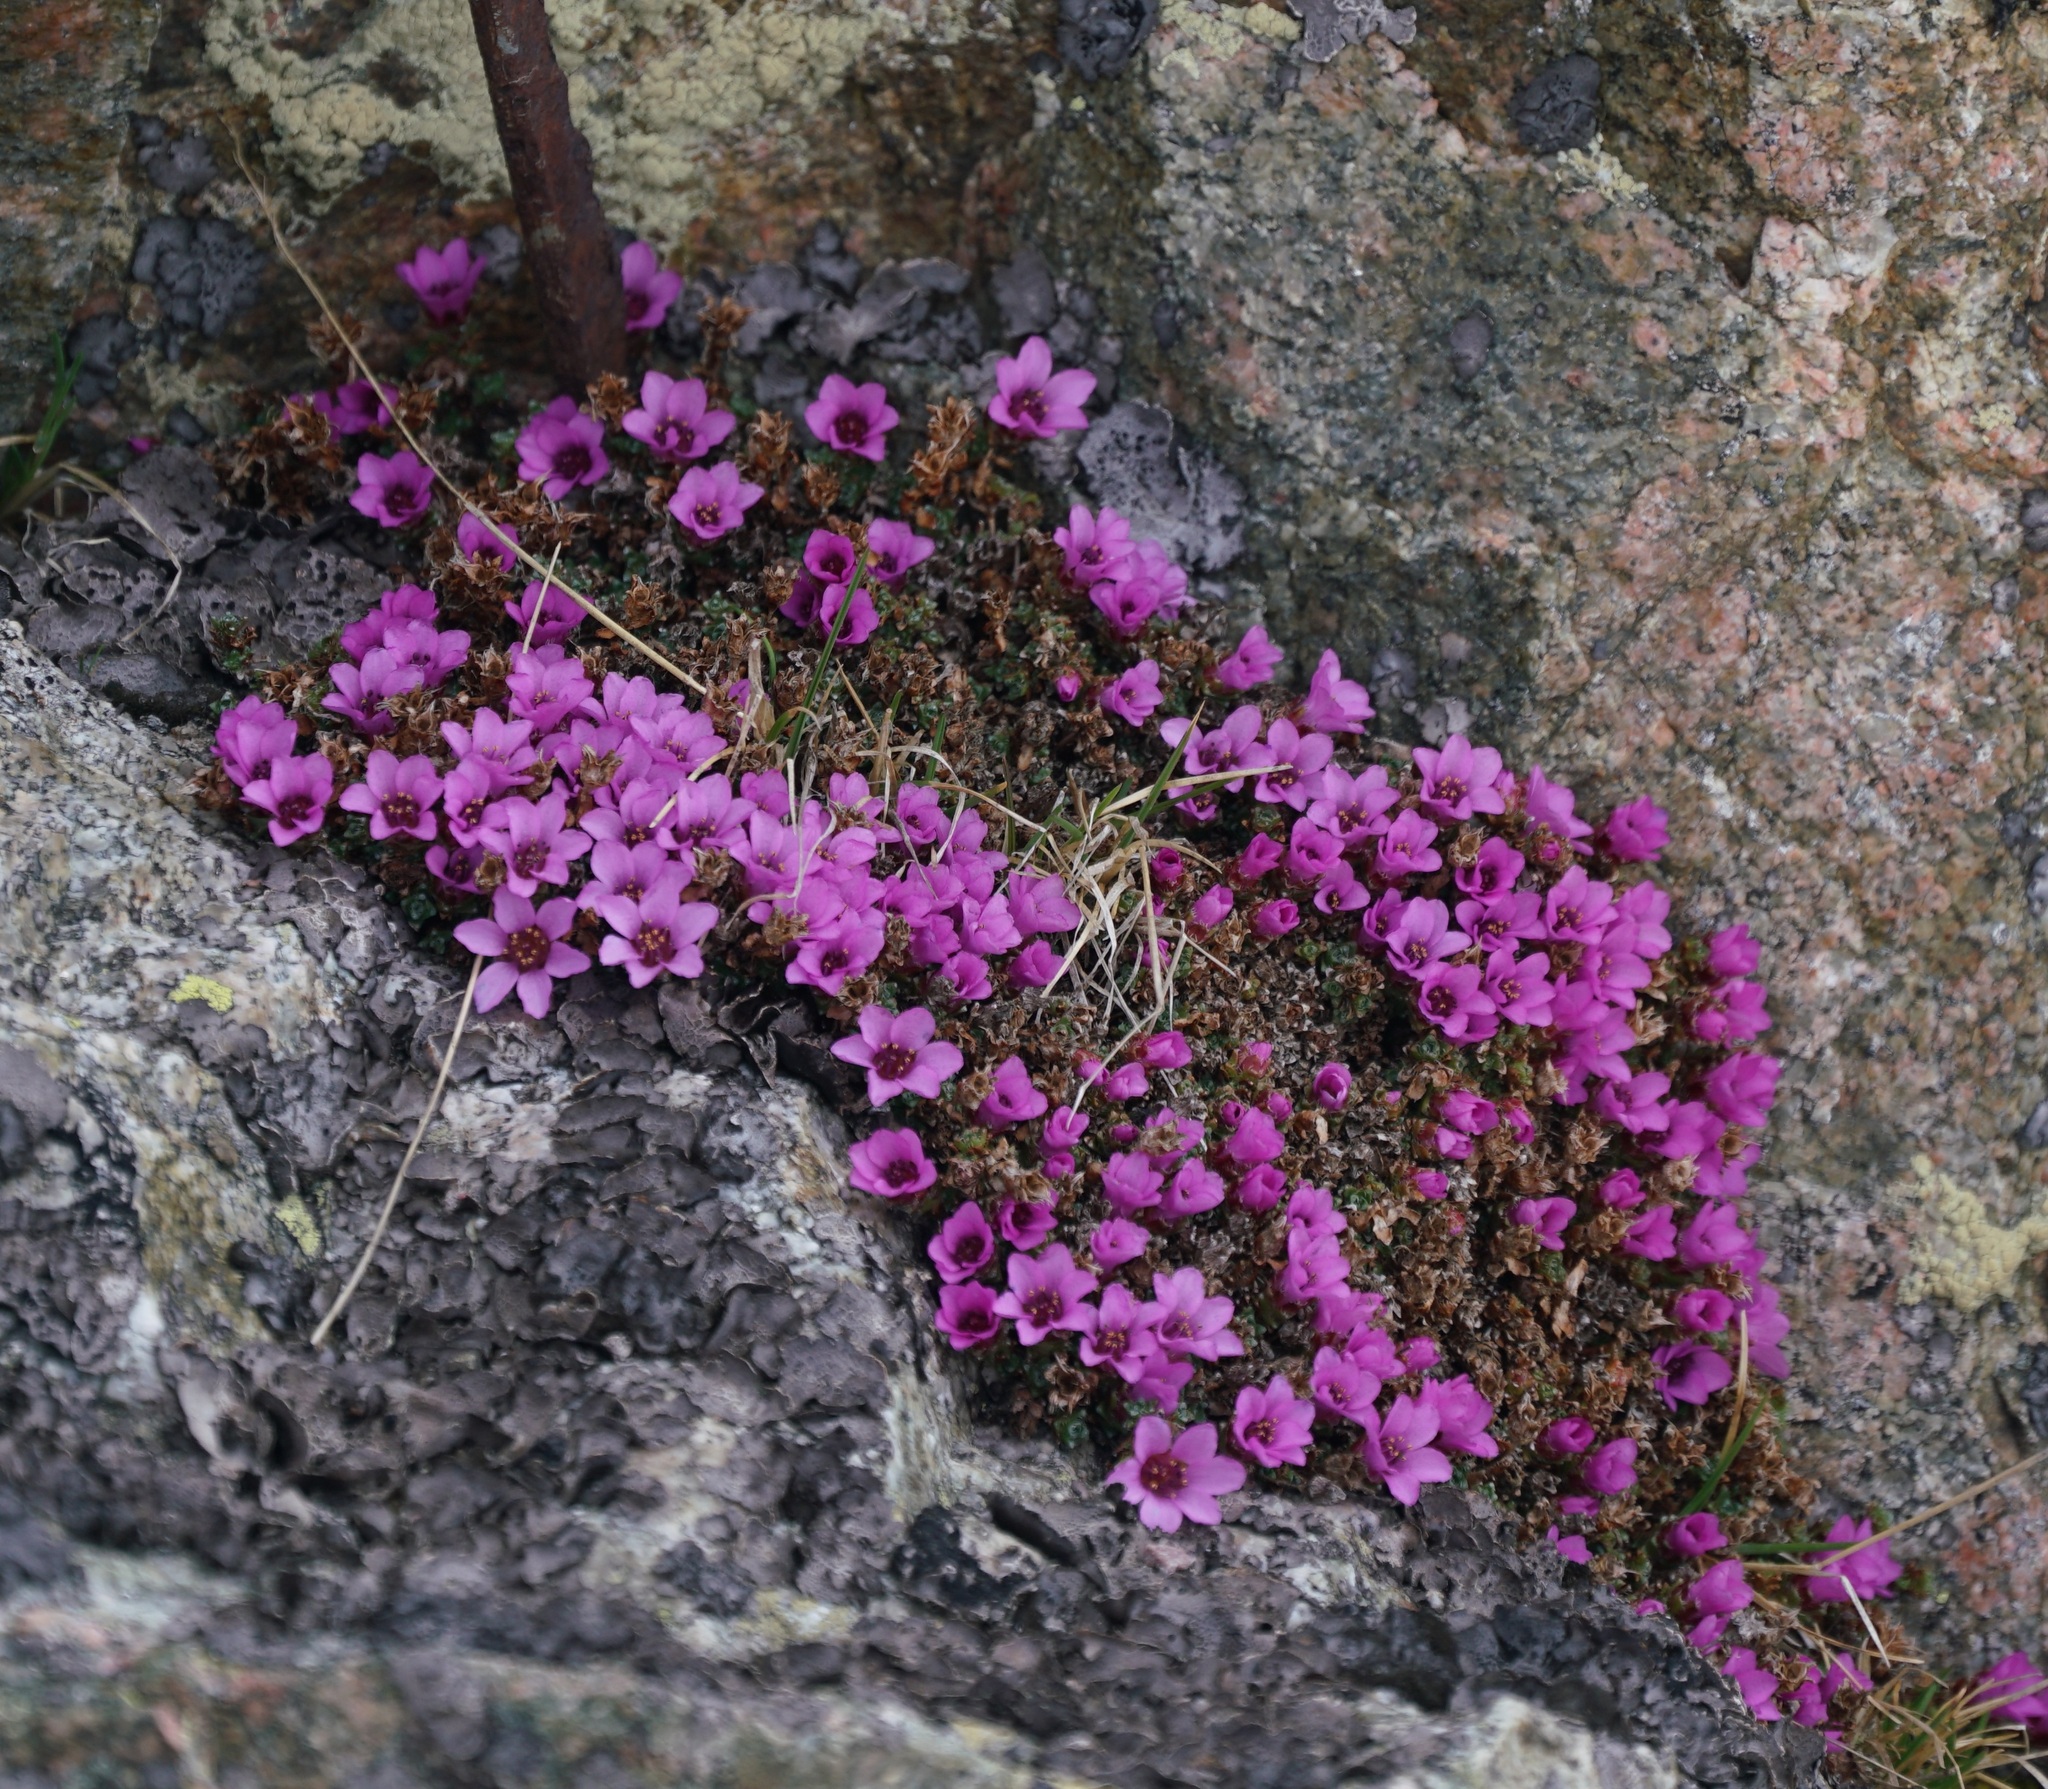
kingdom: Plantae
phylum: Tracheophyta
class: Magnoliopsida
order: Saxifragales
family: Saxifragaceae
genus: Saxifraga
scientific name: Saxifraga oppositifolia
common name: Purple saxifrage
